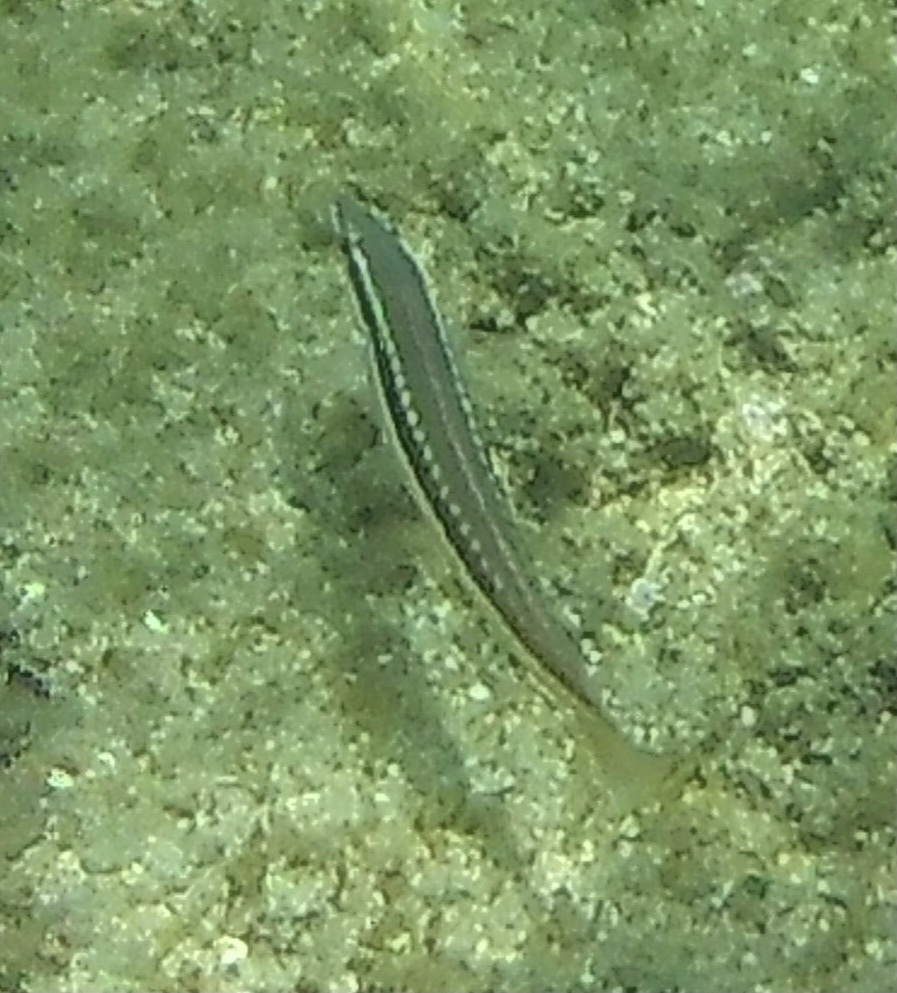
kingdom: Animalia
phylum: Chordata
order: Perciformes
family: Labridae
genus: Coris
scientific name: Coris julis
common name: Rainbow wrasse
